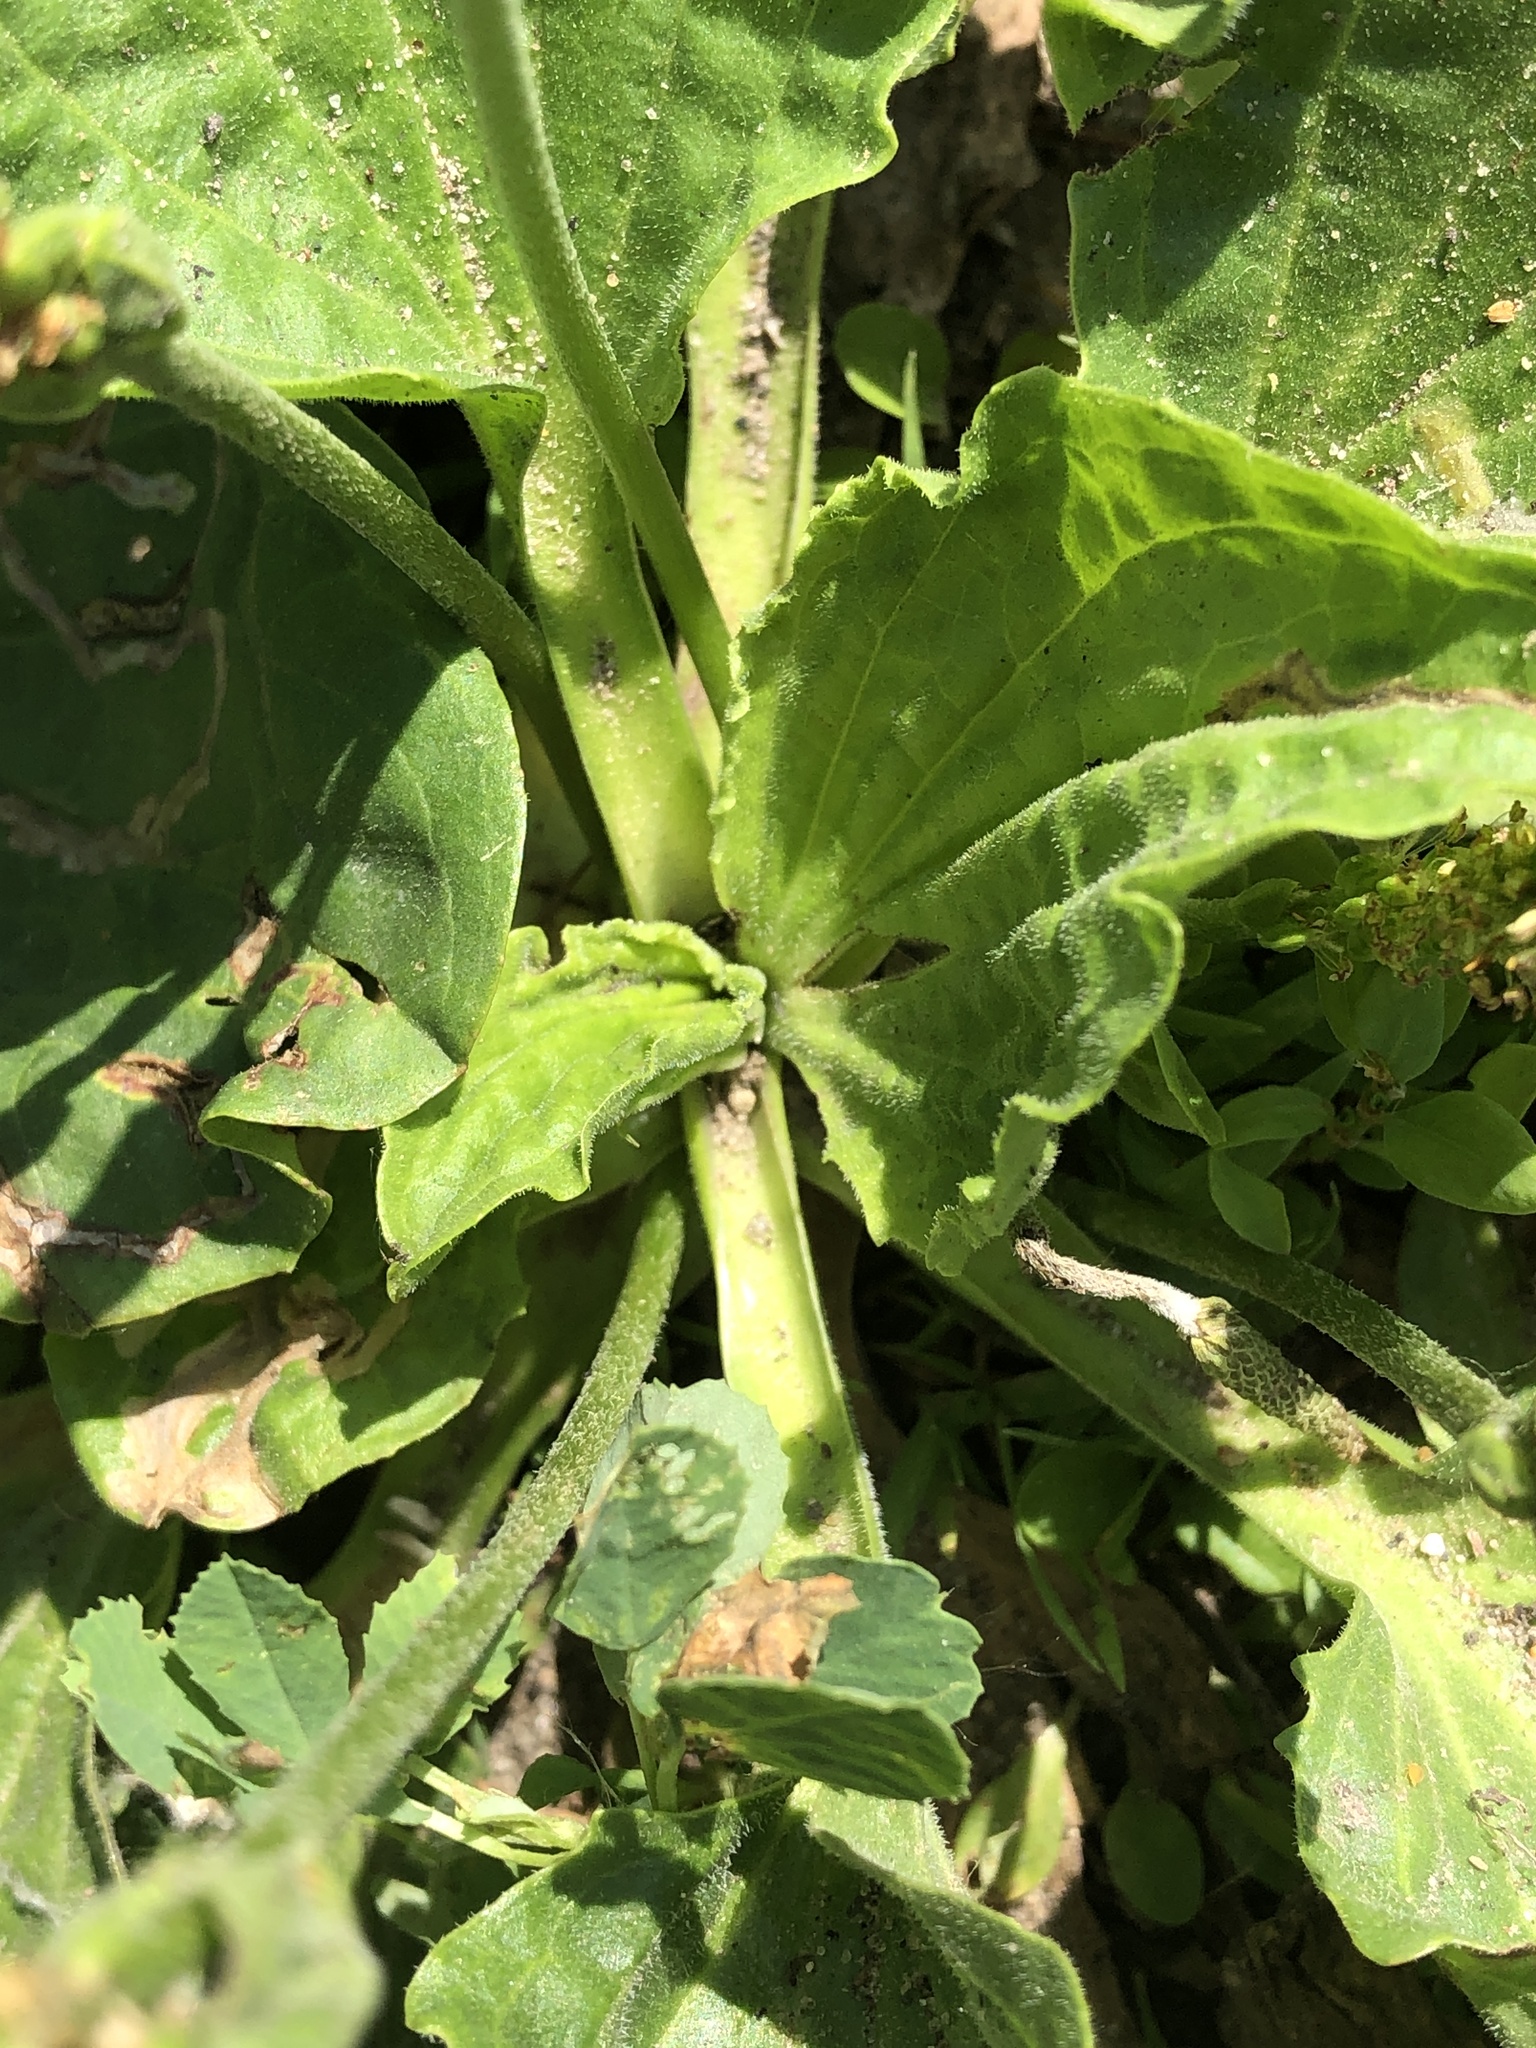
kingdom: Plantae
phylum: Tracheophyta
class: Magnoliopsida
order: Lamiales
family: Plantaginaceae
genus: Plantago
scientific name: Plantago major
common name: Common plantain
